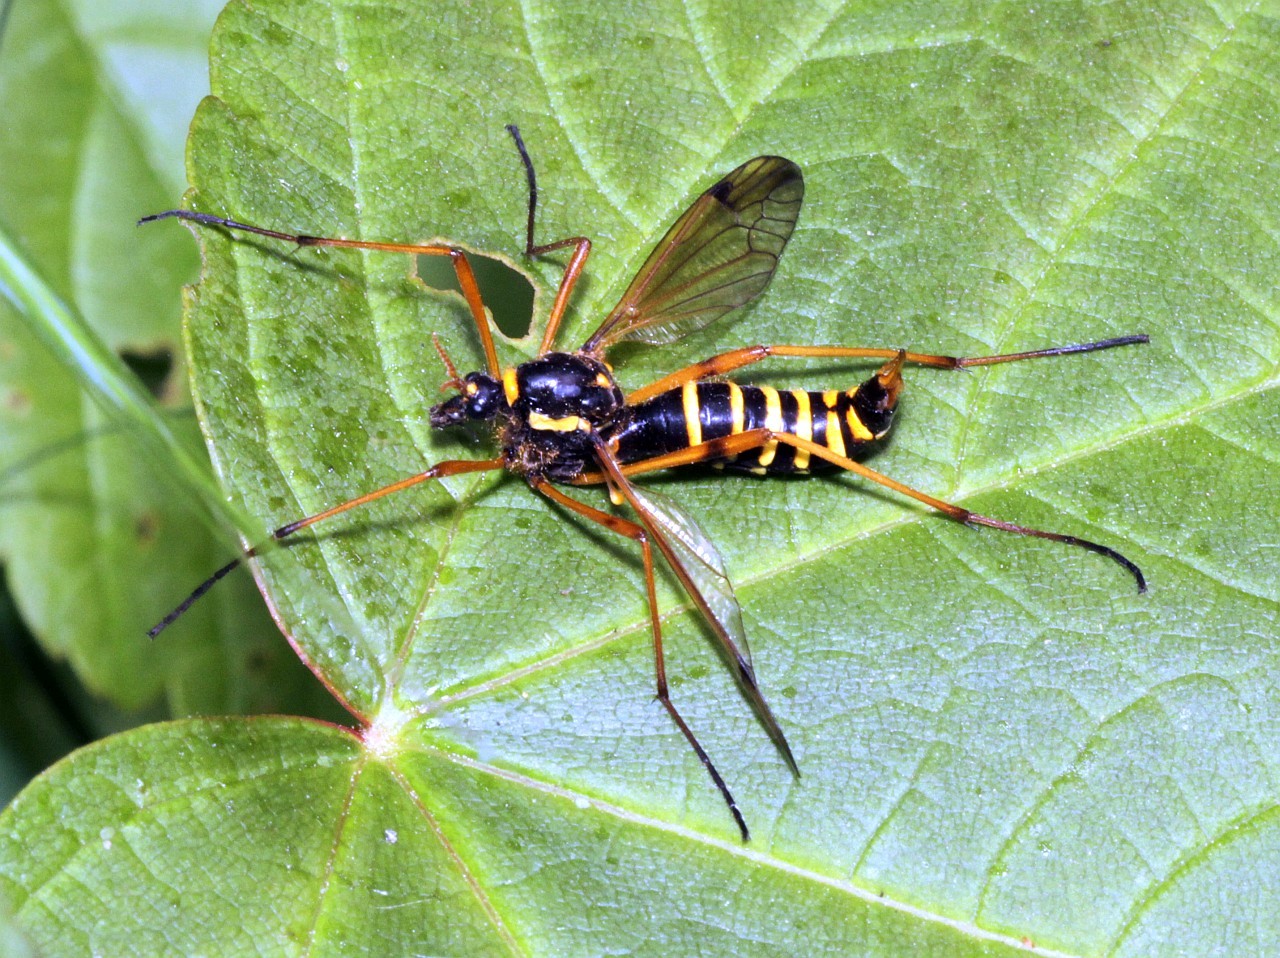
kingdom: Animalia
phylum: Arthropoda
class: Insecta
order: Diptera
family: Tipulidae
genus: Ctenophora
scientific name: Ctenophora flaveolata
